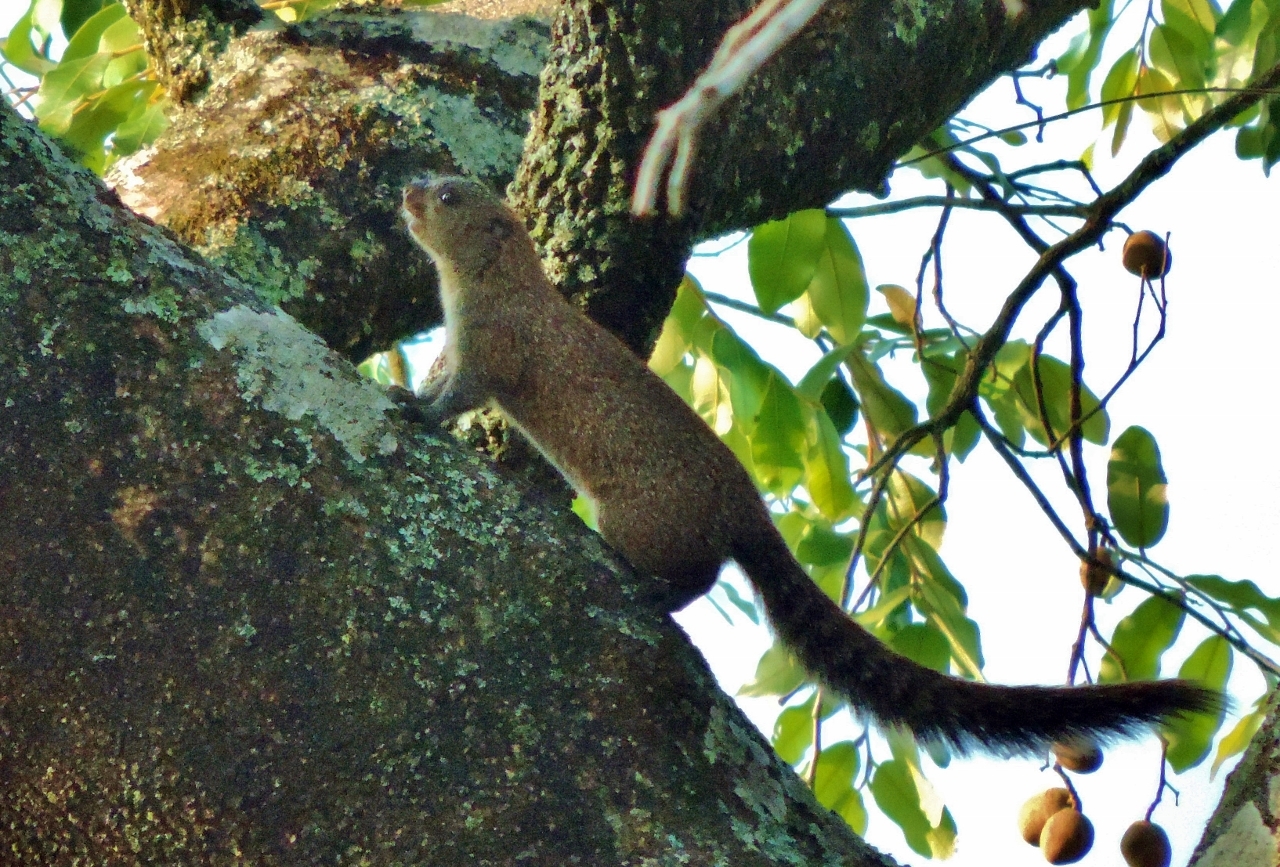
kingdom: Animalia
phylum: Chordata
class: Mammalia
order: Rodentia
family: Sciuridae
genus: Heliosciurus
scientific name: Heliosciurus mutabilis
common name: Mutable sun squirrel
